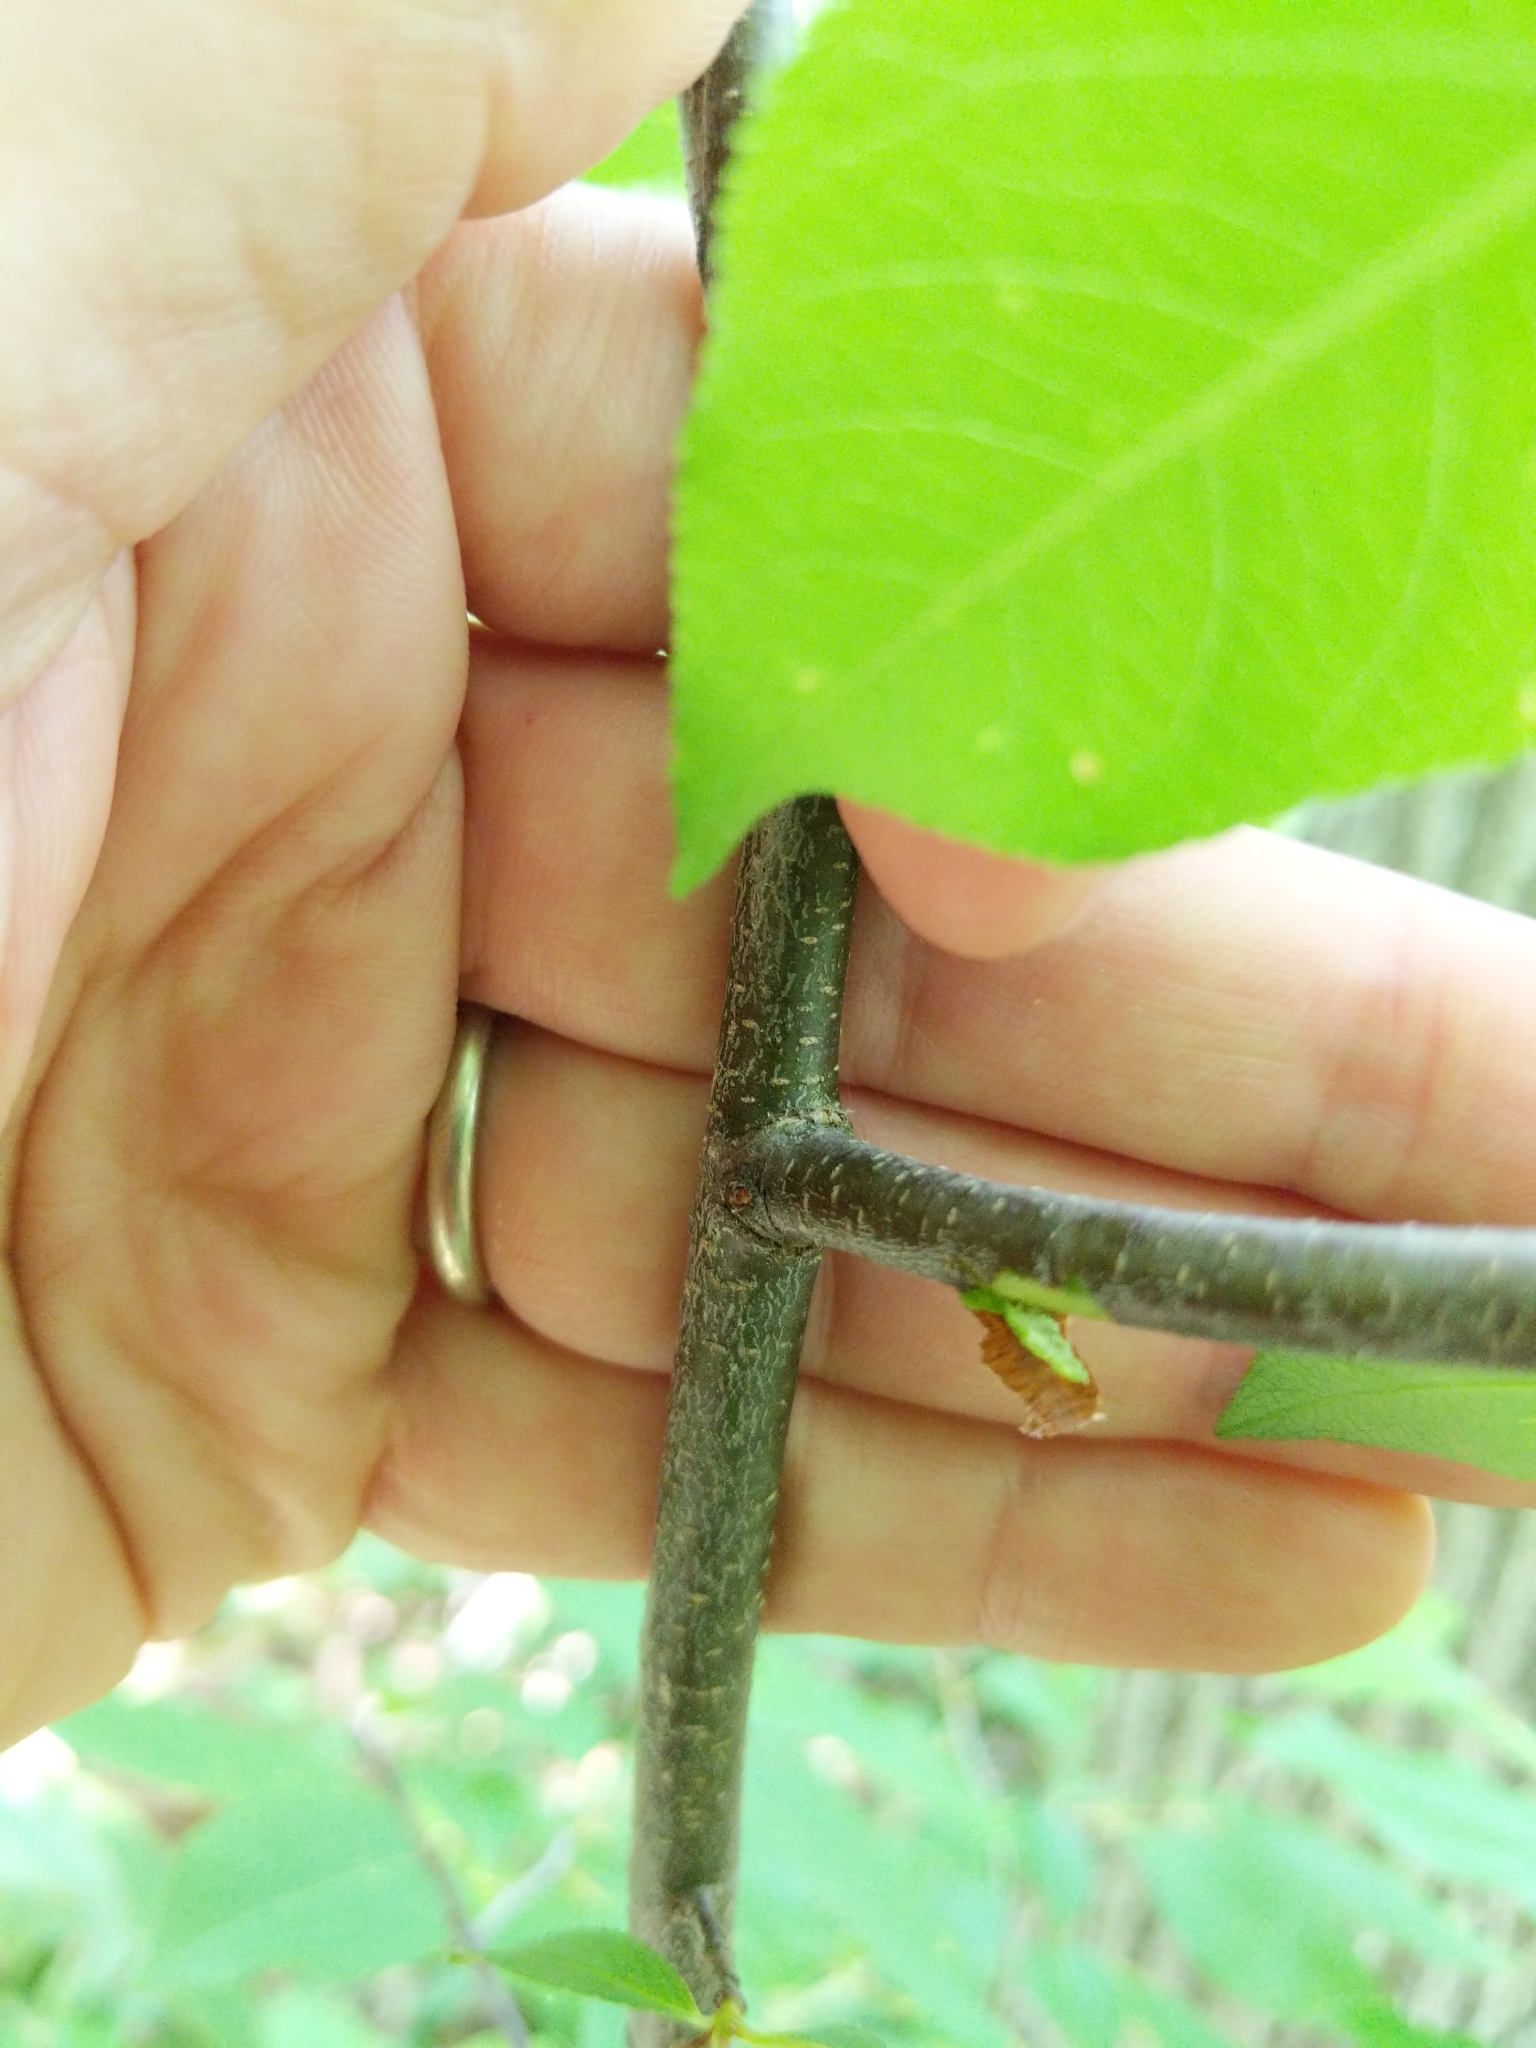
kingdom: Plantae
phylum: Tracheophyta
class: Magnoliopsida
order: Rosales
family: Rosaceae
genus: Prunus
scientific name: Prunus serotina
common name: Black cherry
